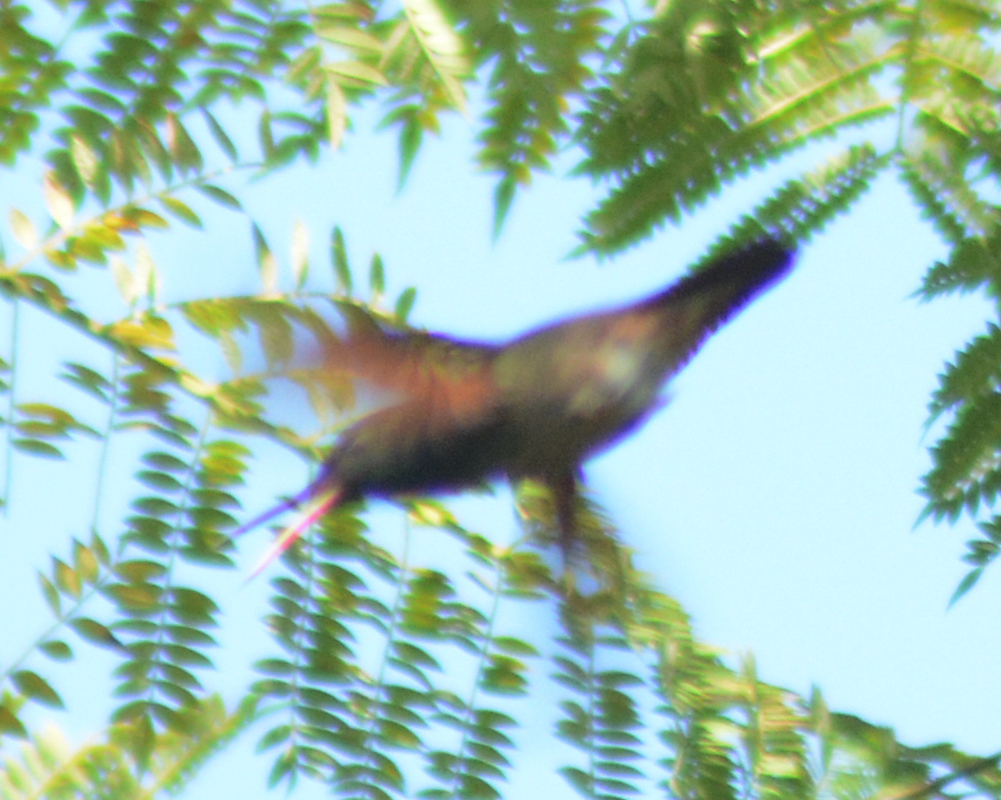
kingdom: Animalia
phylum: Chordata
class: Aves
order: Apodiformes
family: Trochilidae
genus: Saucerottia
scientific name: Saucerottia beryllina
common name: Berylline hummingbird
